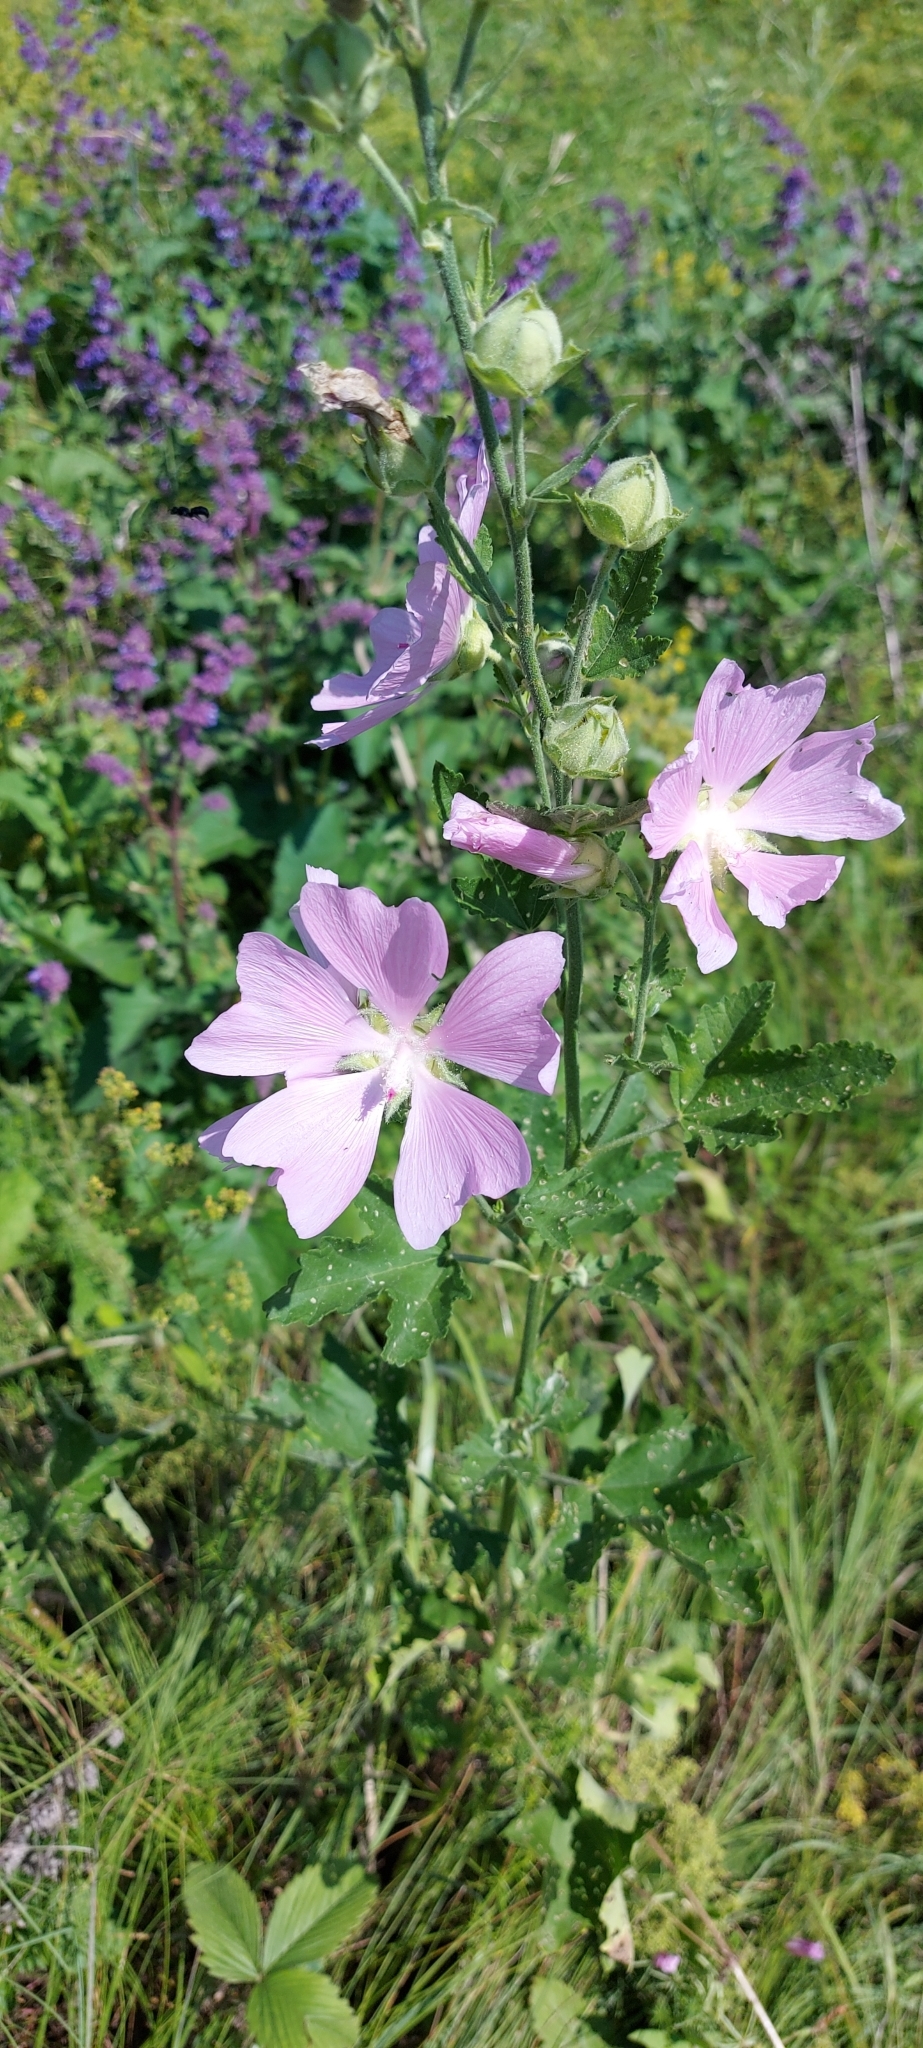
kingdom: Plantae
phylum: Tracheophyta
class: Magnoliopsida
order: Malvales
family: Malvaceae
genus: Malva
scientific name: Malva thuringiaca
